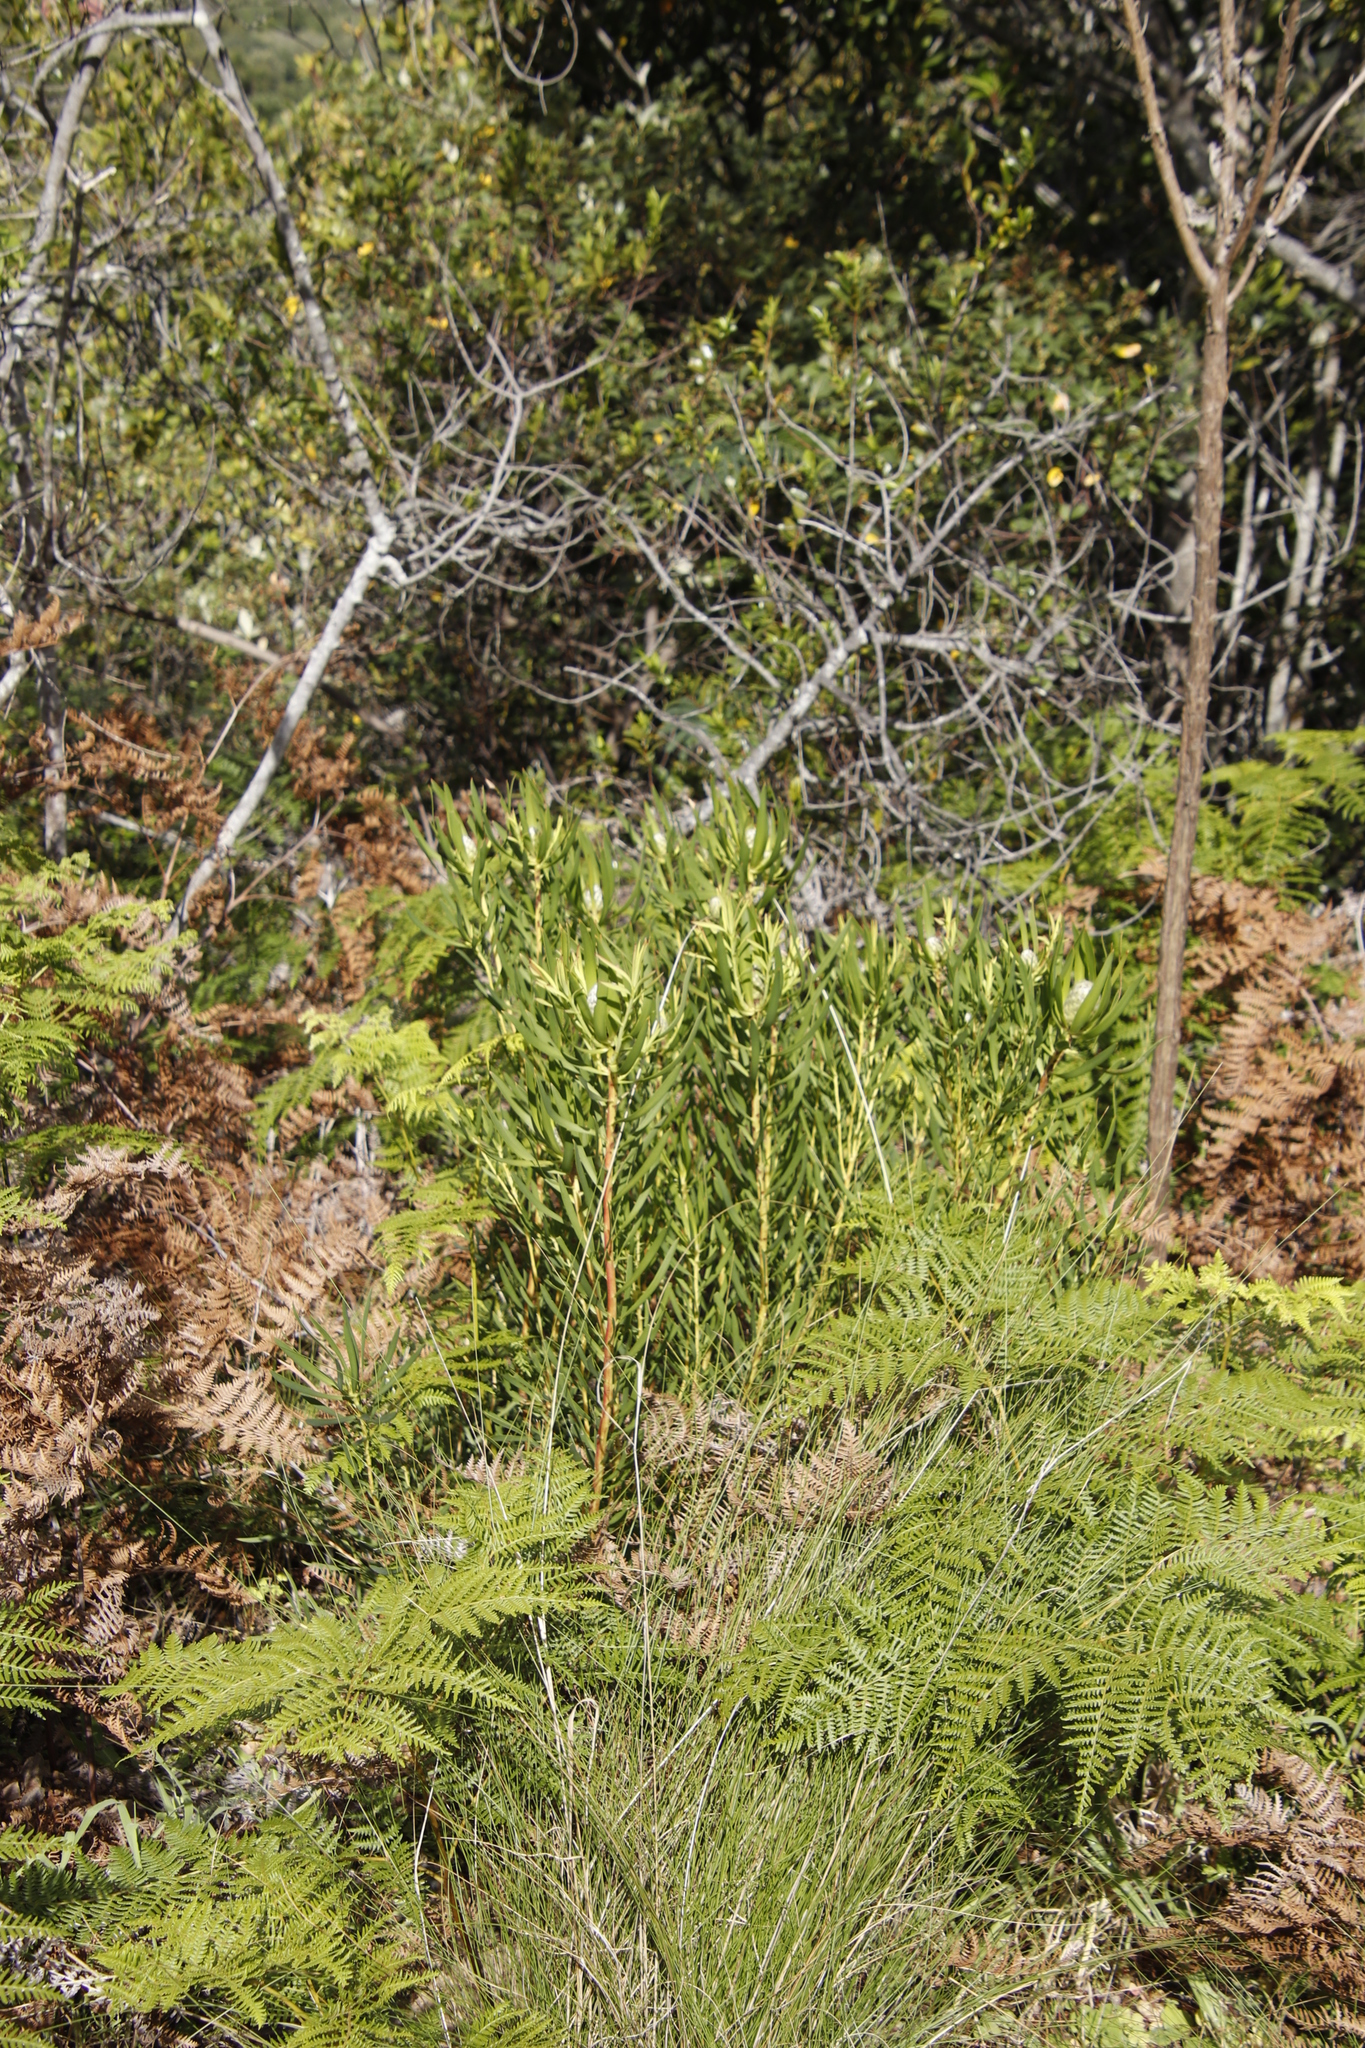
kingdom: Plantae
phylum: Tracheophyta
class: Magnoliopsida
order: Proteales
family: Proteaceae
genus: Leucadendron
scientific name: Leucadendron salignum
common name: Common sunshine conebush
